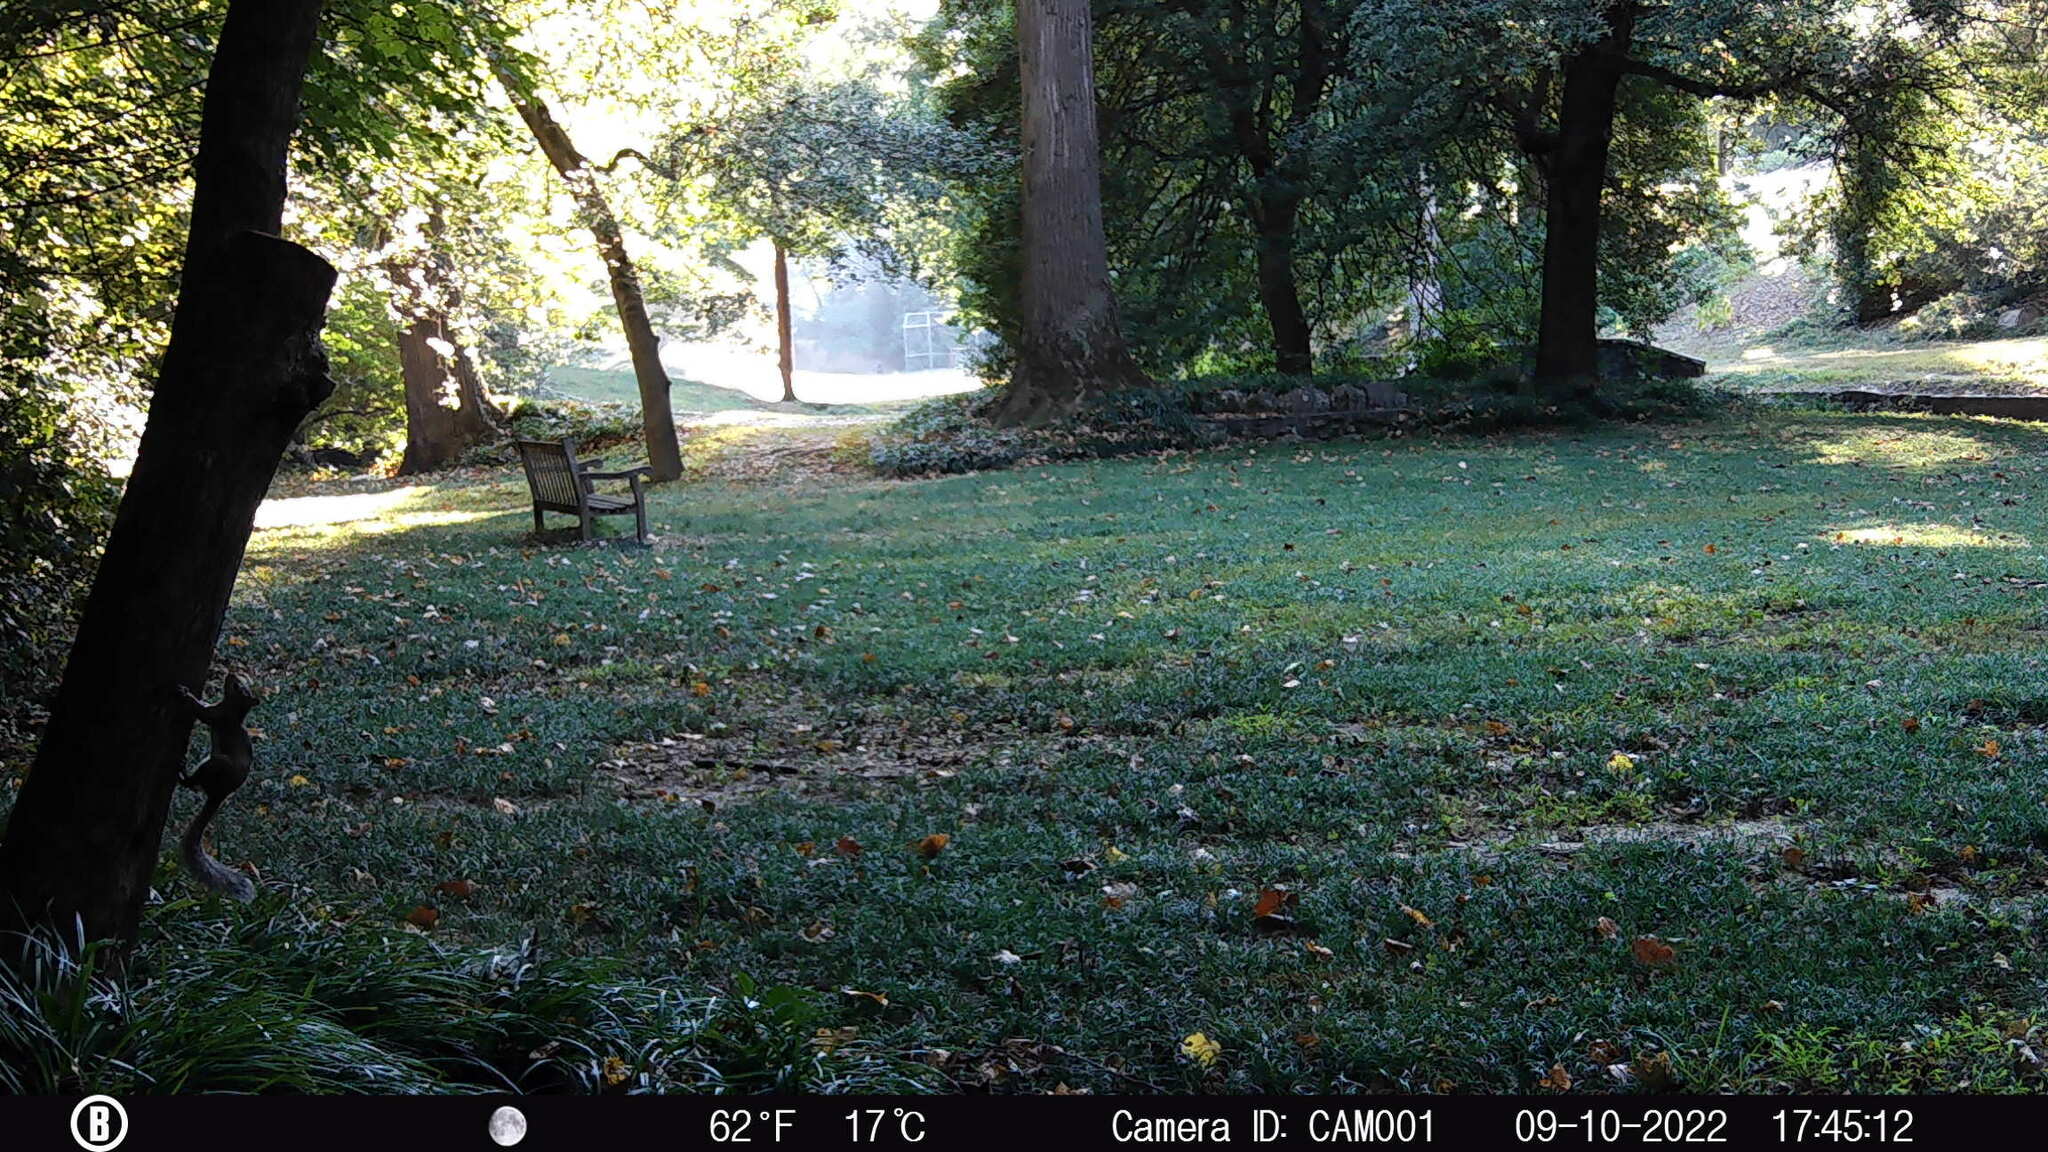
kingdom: Animalia
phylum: Chordata
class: Mammalia
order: Rodentia
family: Sciuridae
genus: Sciurus
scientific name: Sciurus carolinensis
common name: Eastern gray squirrel
